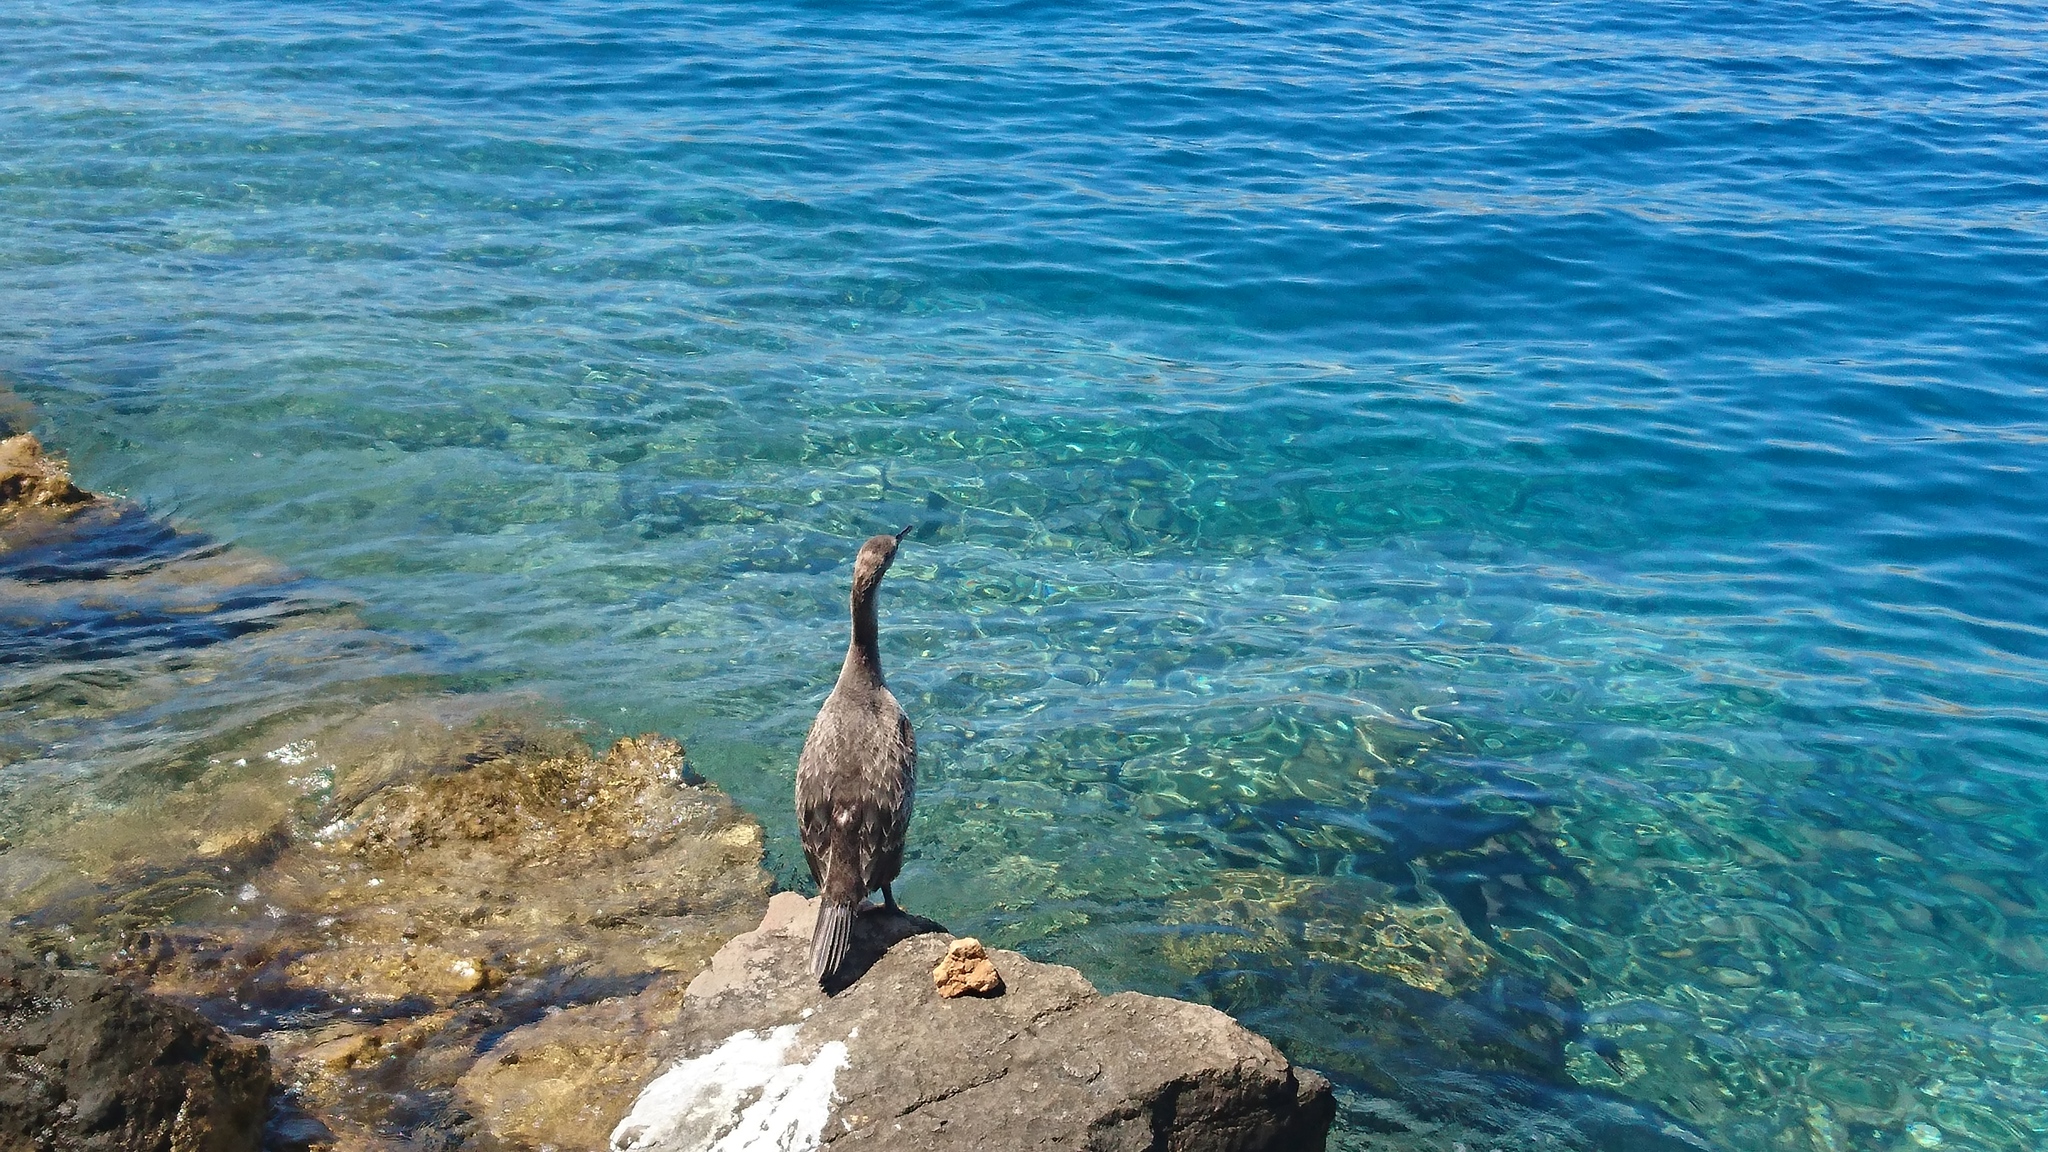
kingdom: Animalia
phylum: Chordata
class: Aves
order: Suliformes
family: Phalacrocoracidae
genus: Phalacrocorax
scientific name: Phalacrocorax aristotelis
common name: European shag
